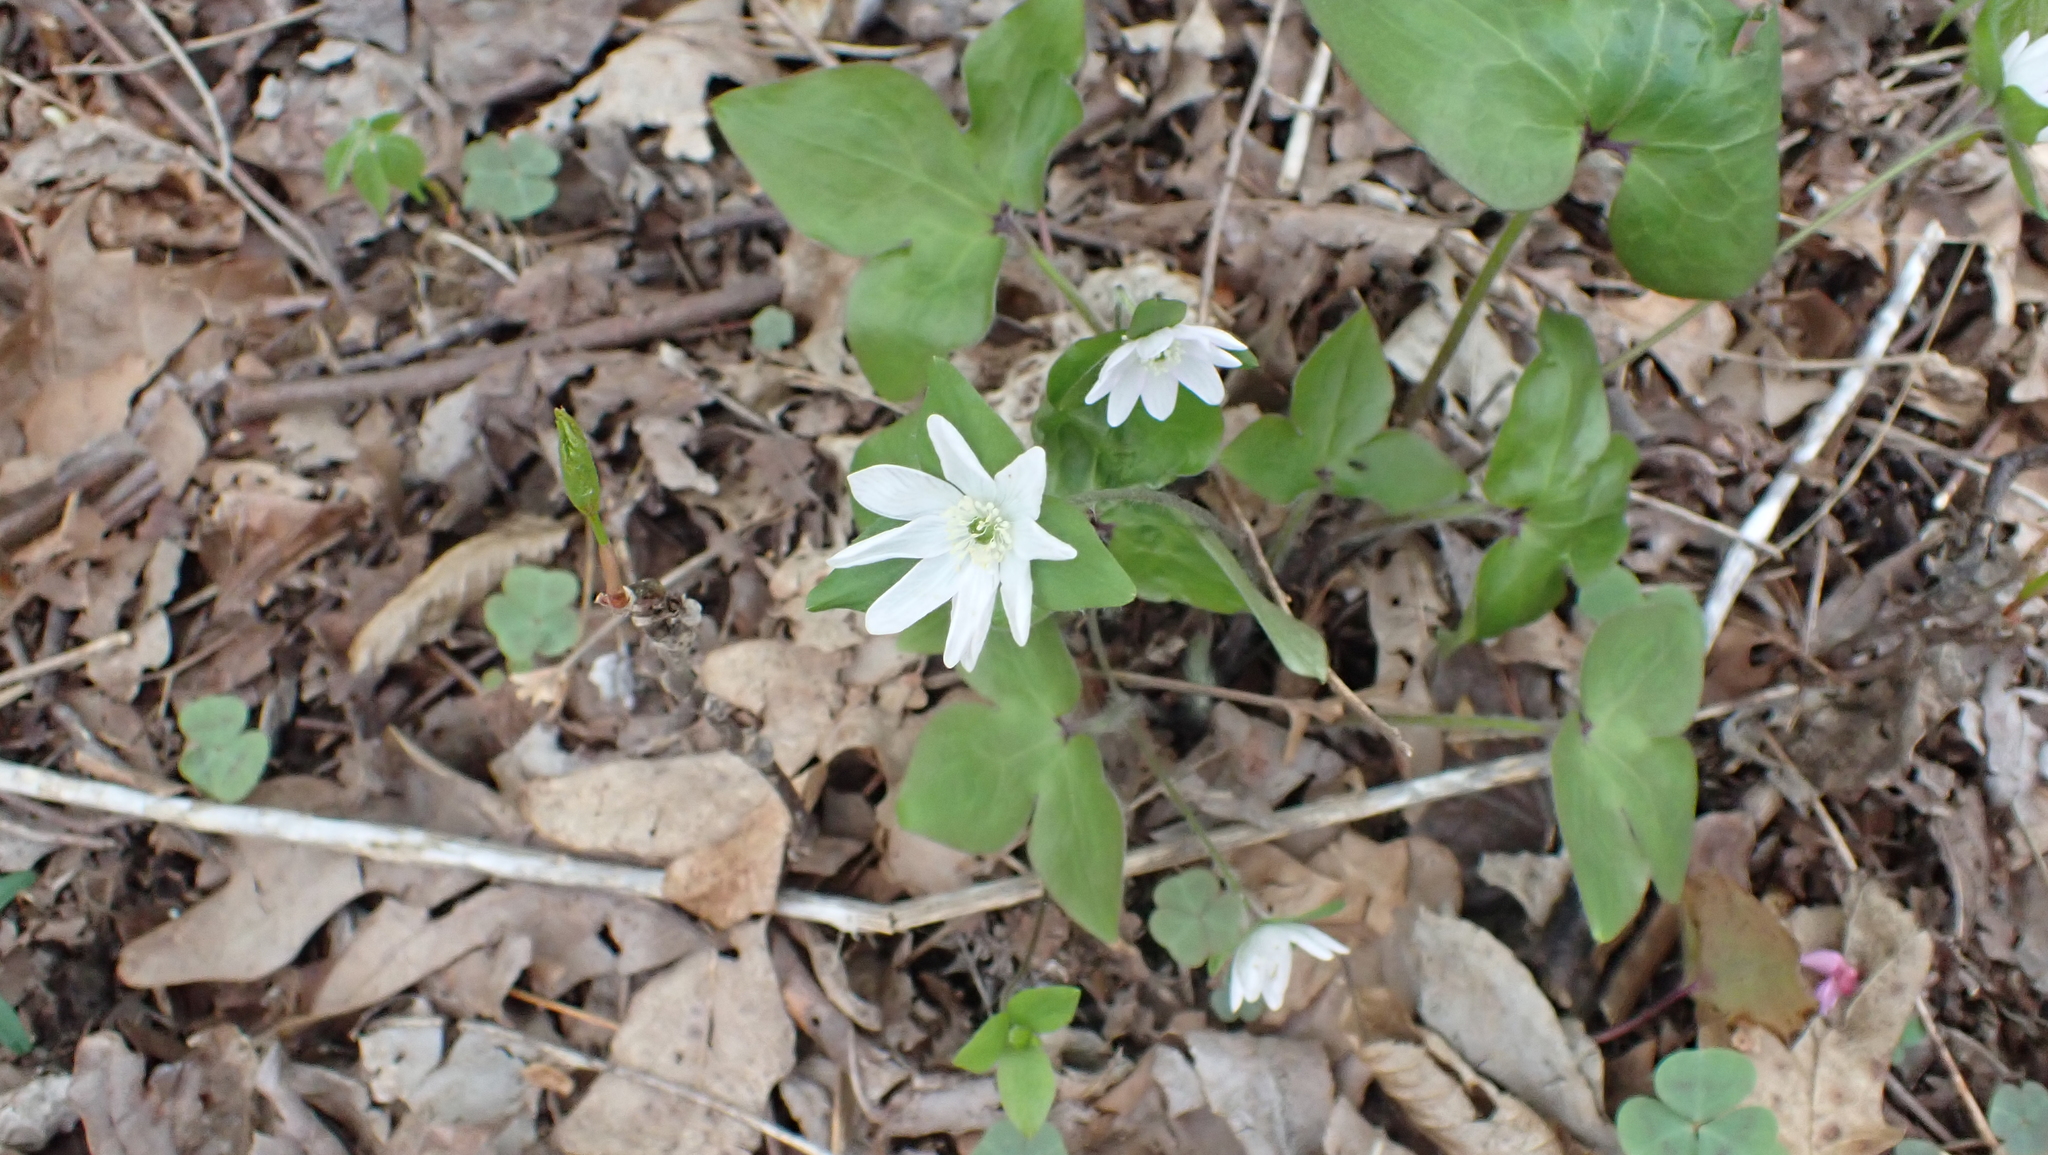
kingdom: Plantae
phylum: Tracheophyta
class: Magnoliopsida
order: Ranunculales
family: Ranunculaceae
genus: Hepatica
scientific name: Hepatica acutiloba
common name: Sharp-lobed hepatica
